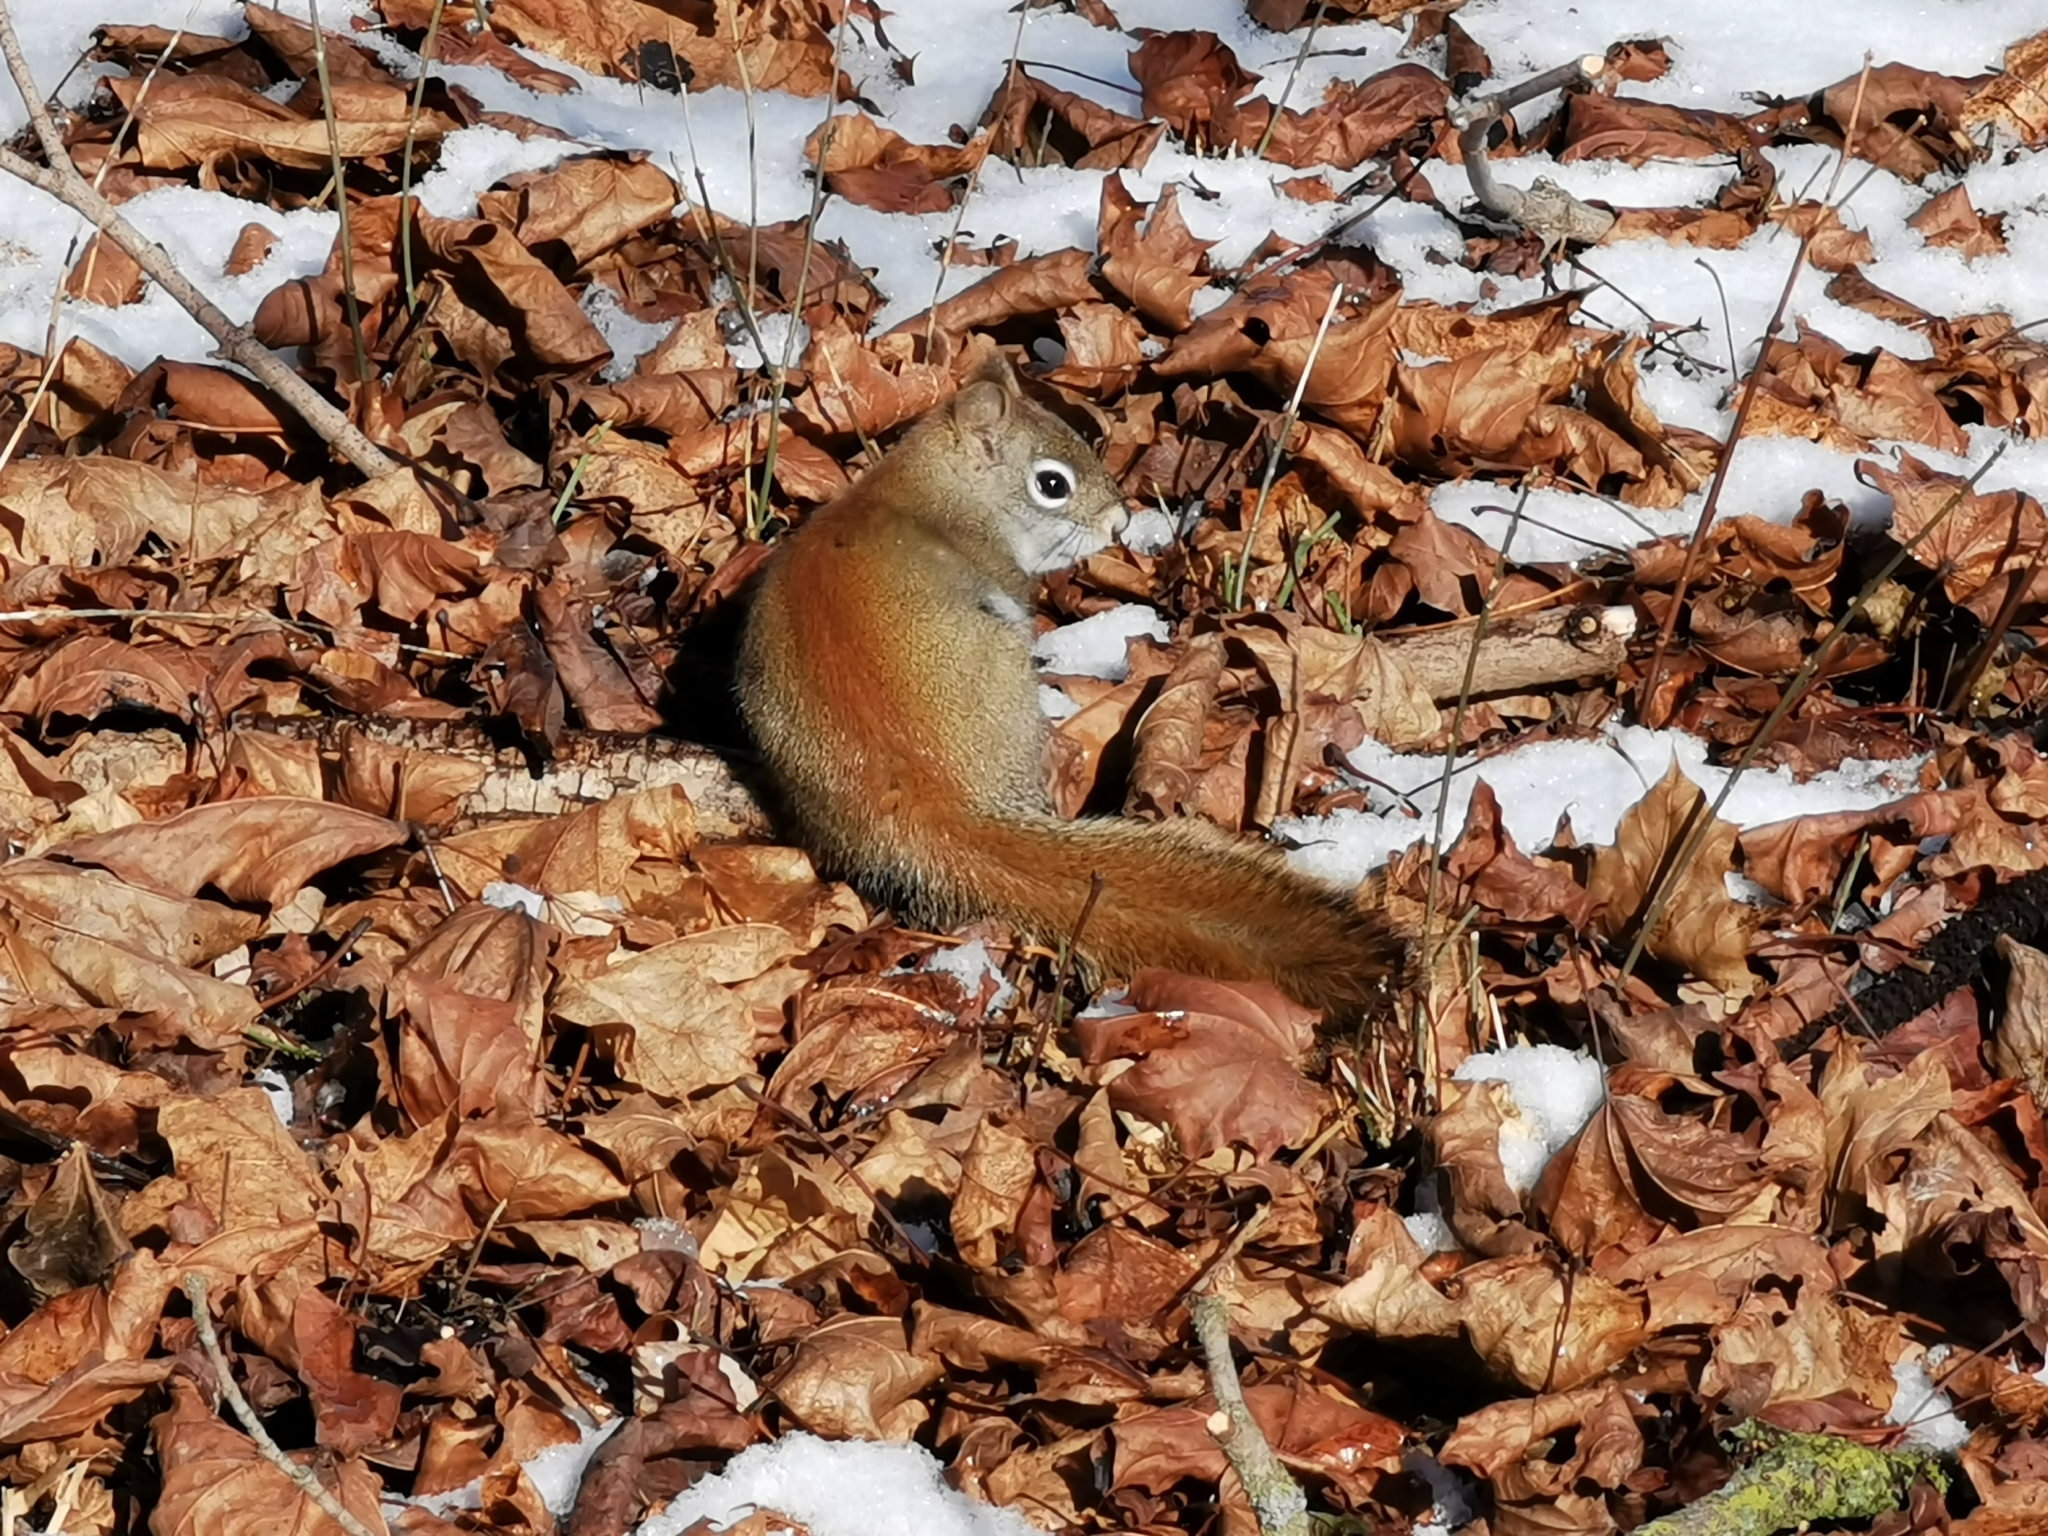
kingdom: Animalia
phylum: Chordata
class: Mammalia
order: Rodentia
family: Sciuridae
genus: Tamiasciurus
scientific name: Tamiasciurus hudsonicus
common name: Red squirrel
